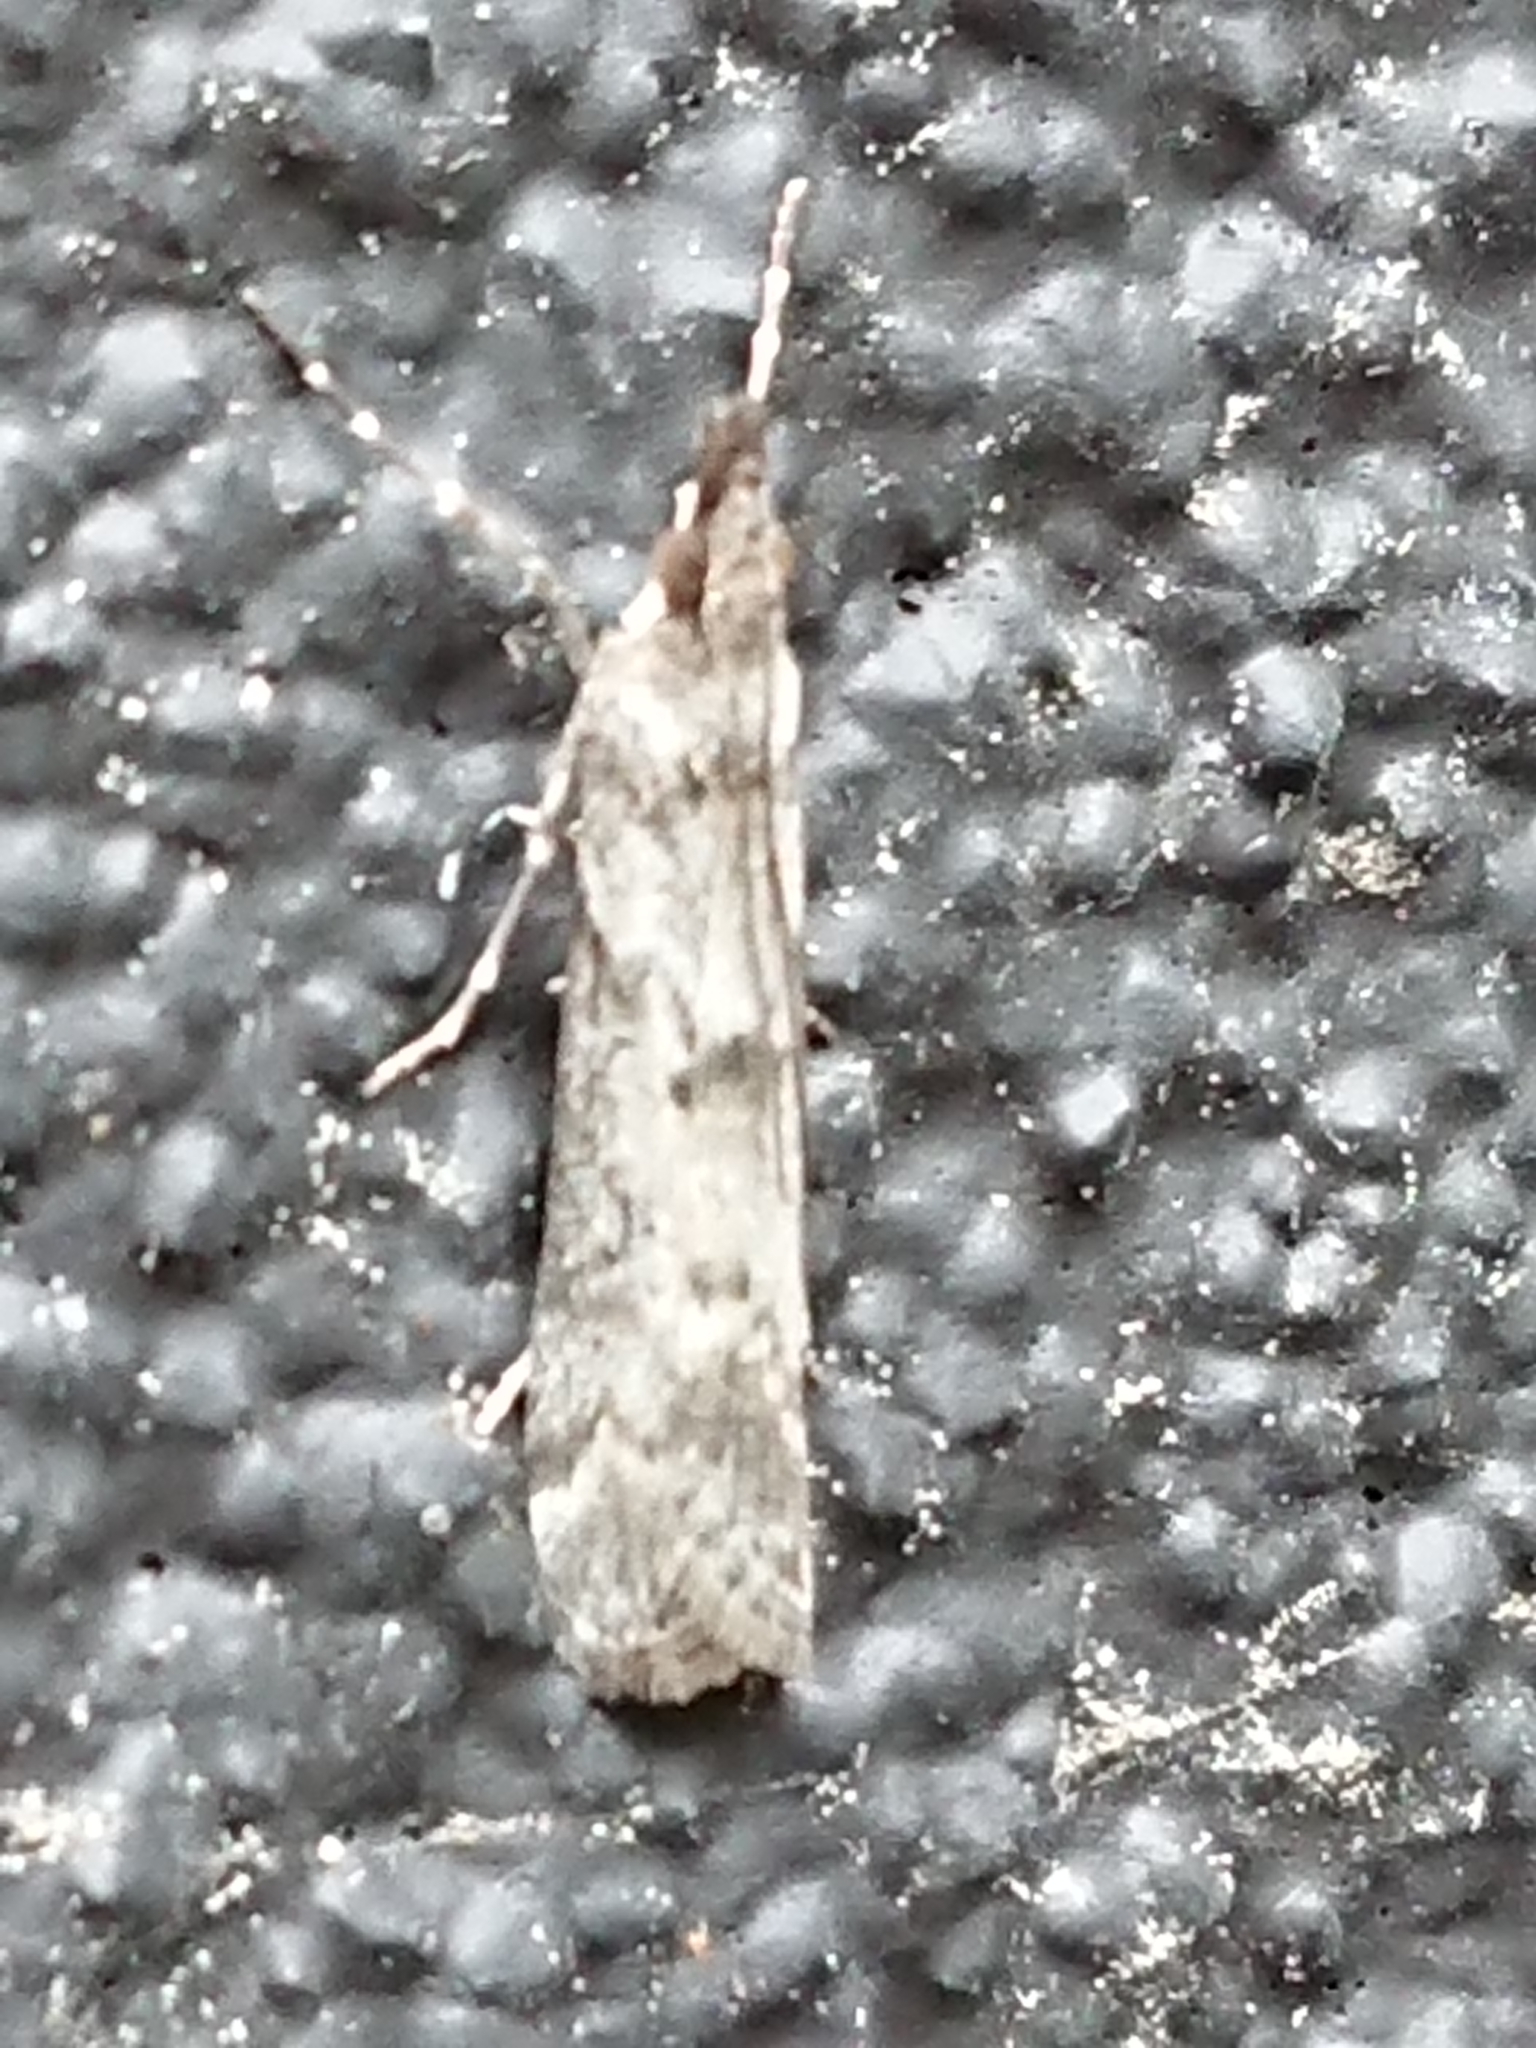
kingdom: Animalia
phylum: Arthropoda
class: Insecta
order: Lepidoptera
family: Crambidae
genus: Eudonia
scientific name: Eudonia leptalea
